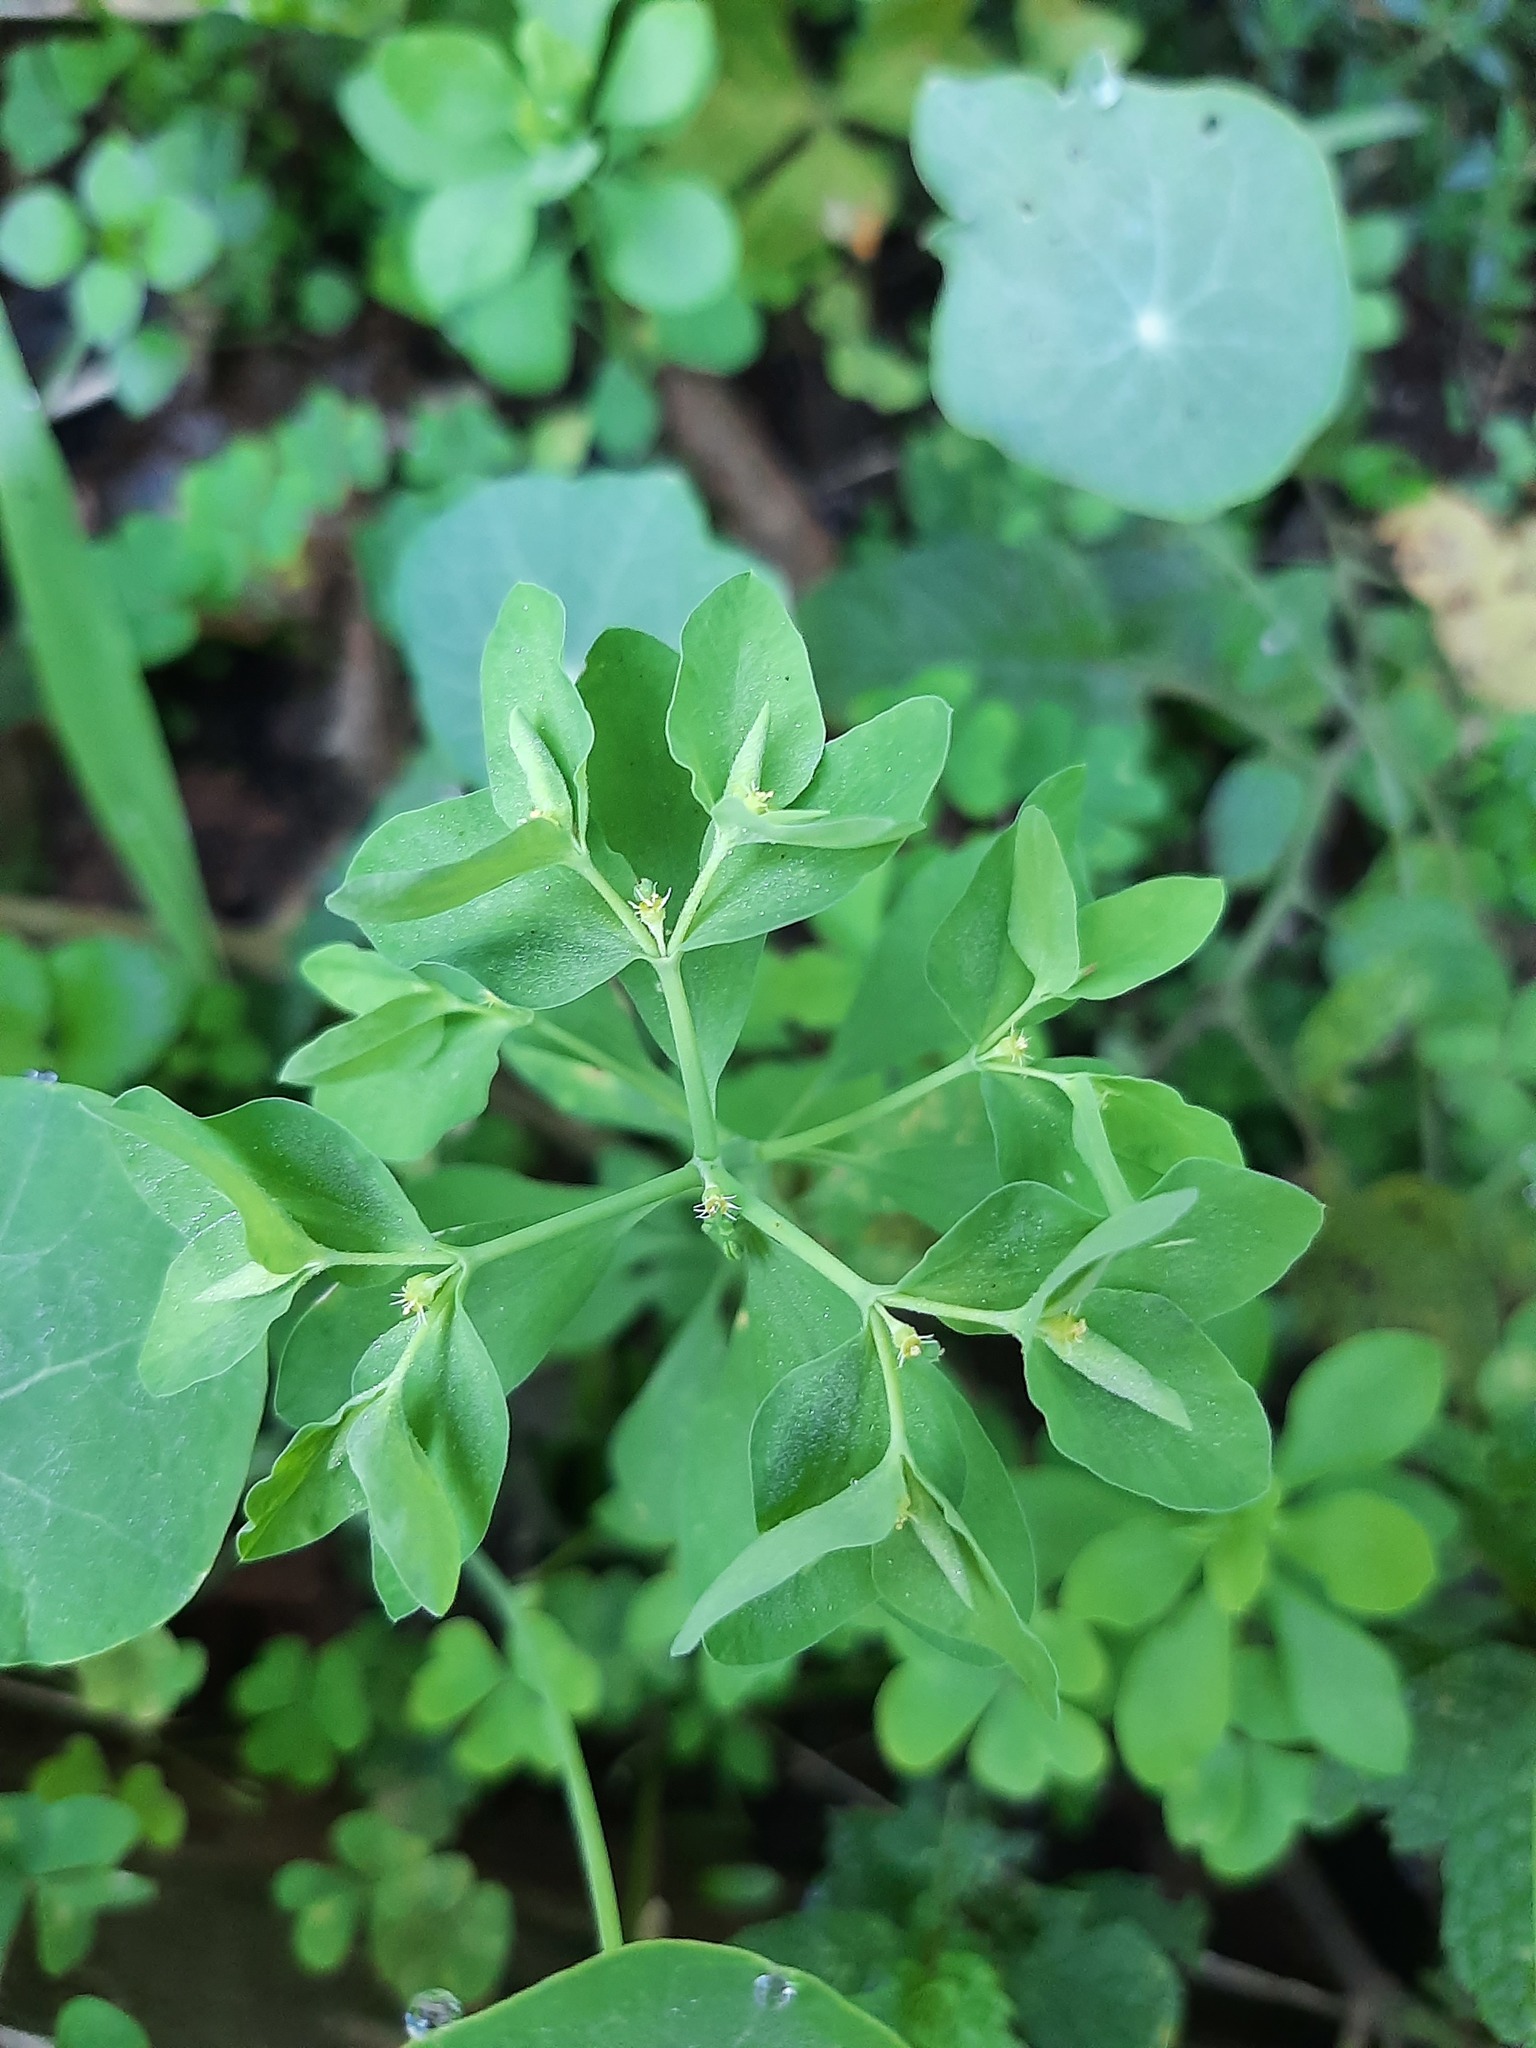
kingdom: Plantae
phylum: Tracheophyta
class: Magnoliopsida
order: Malpighiales
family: Euphorbiaceae
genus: Euphorbia
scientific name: Euphorbia peplus
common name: Petty spurge
